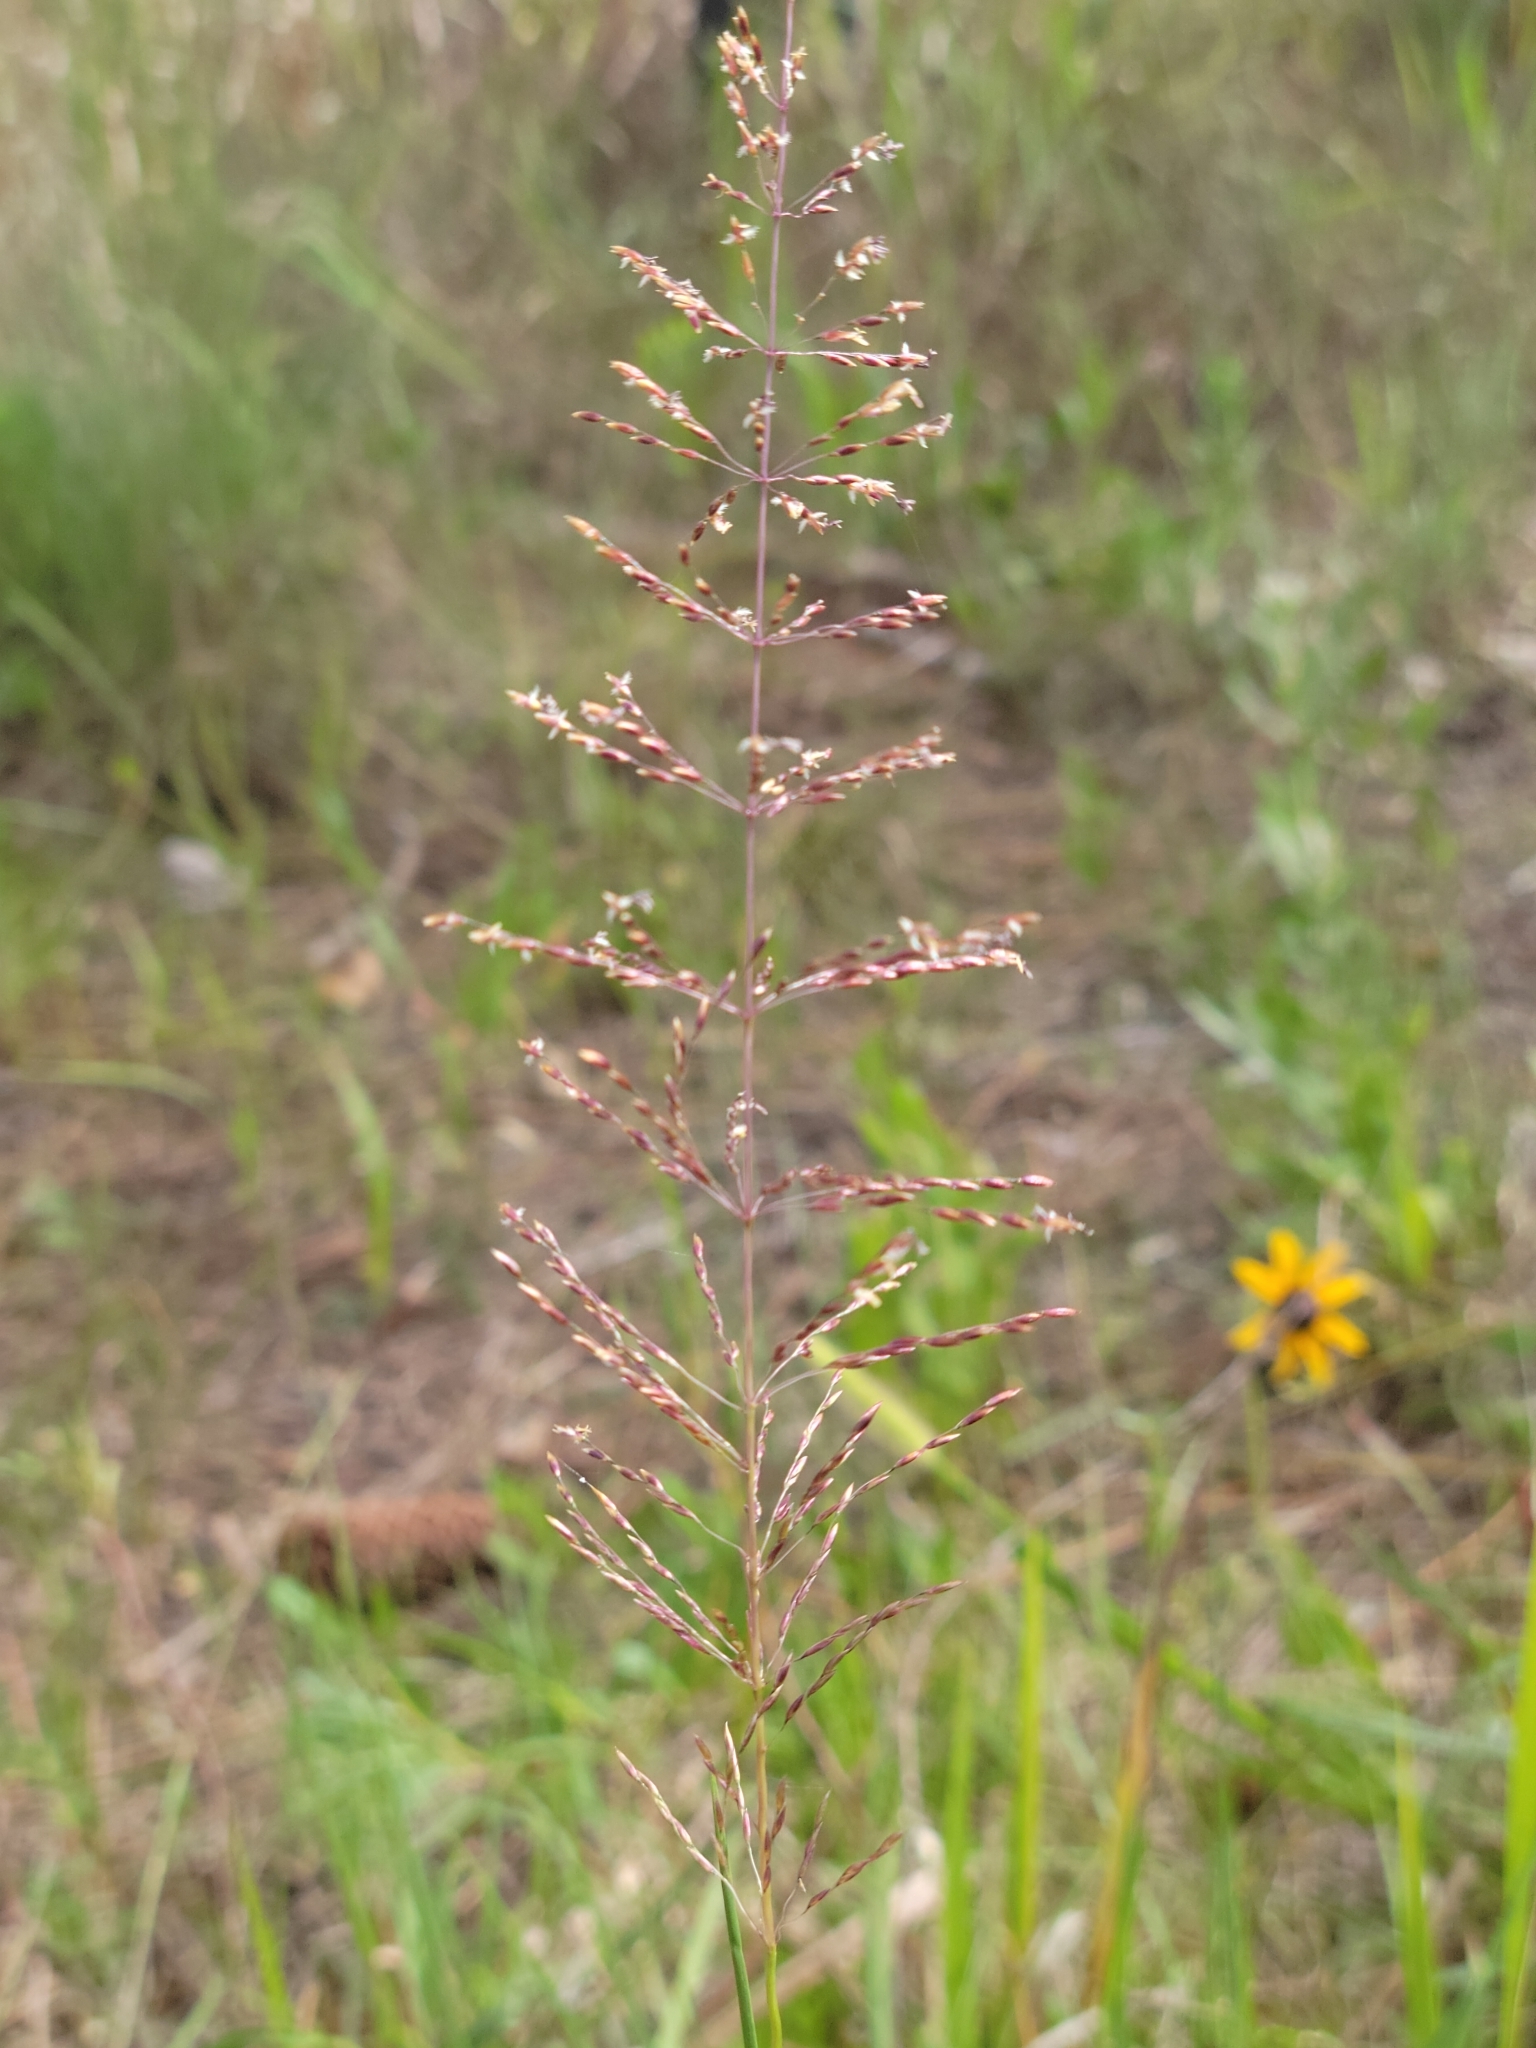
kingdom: Plantae
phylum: Tracheophyta
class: Liliopsida
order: Poales
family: Poaceae
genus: Sporobolus
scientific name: Sporobolus junceus
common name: Lizard grass
